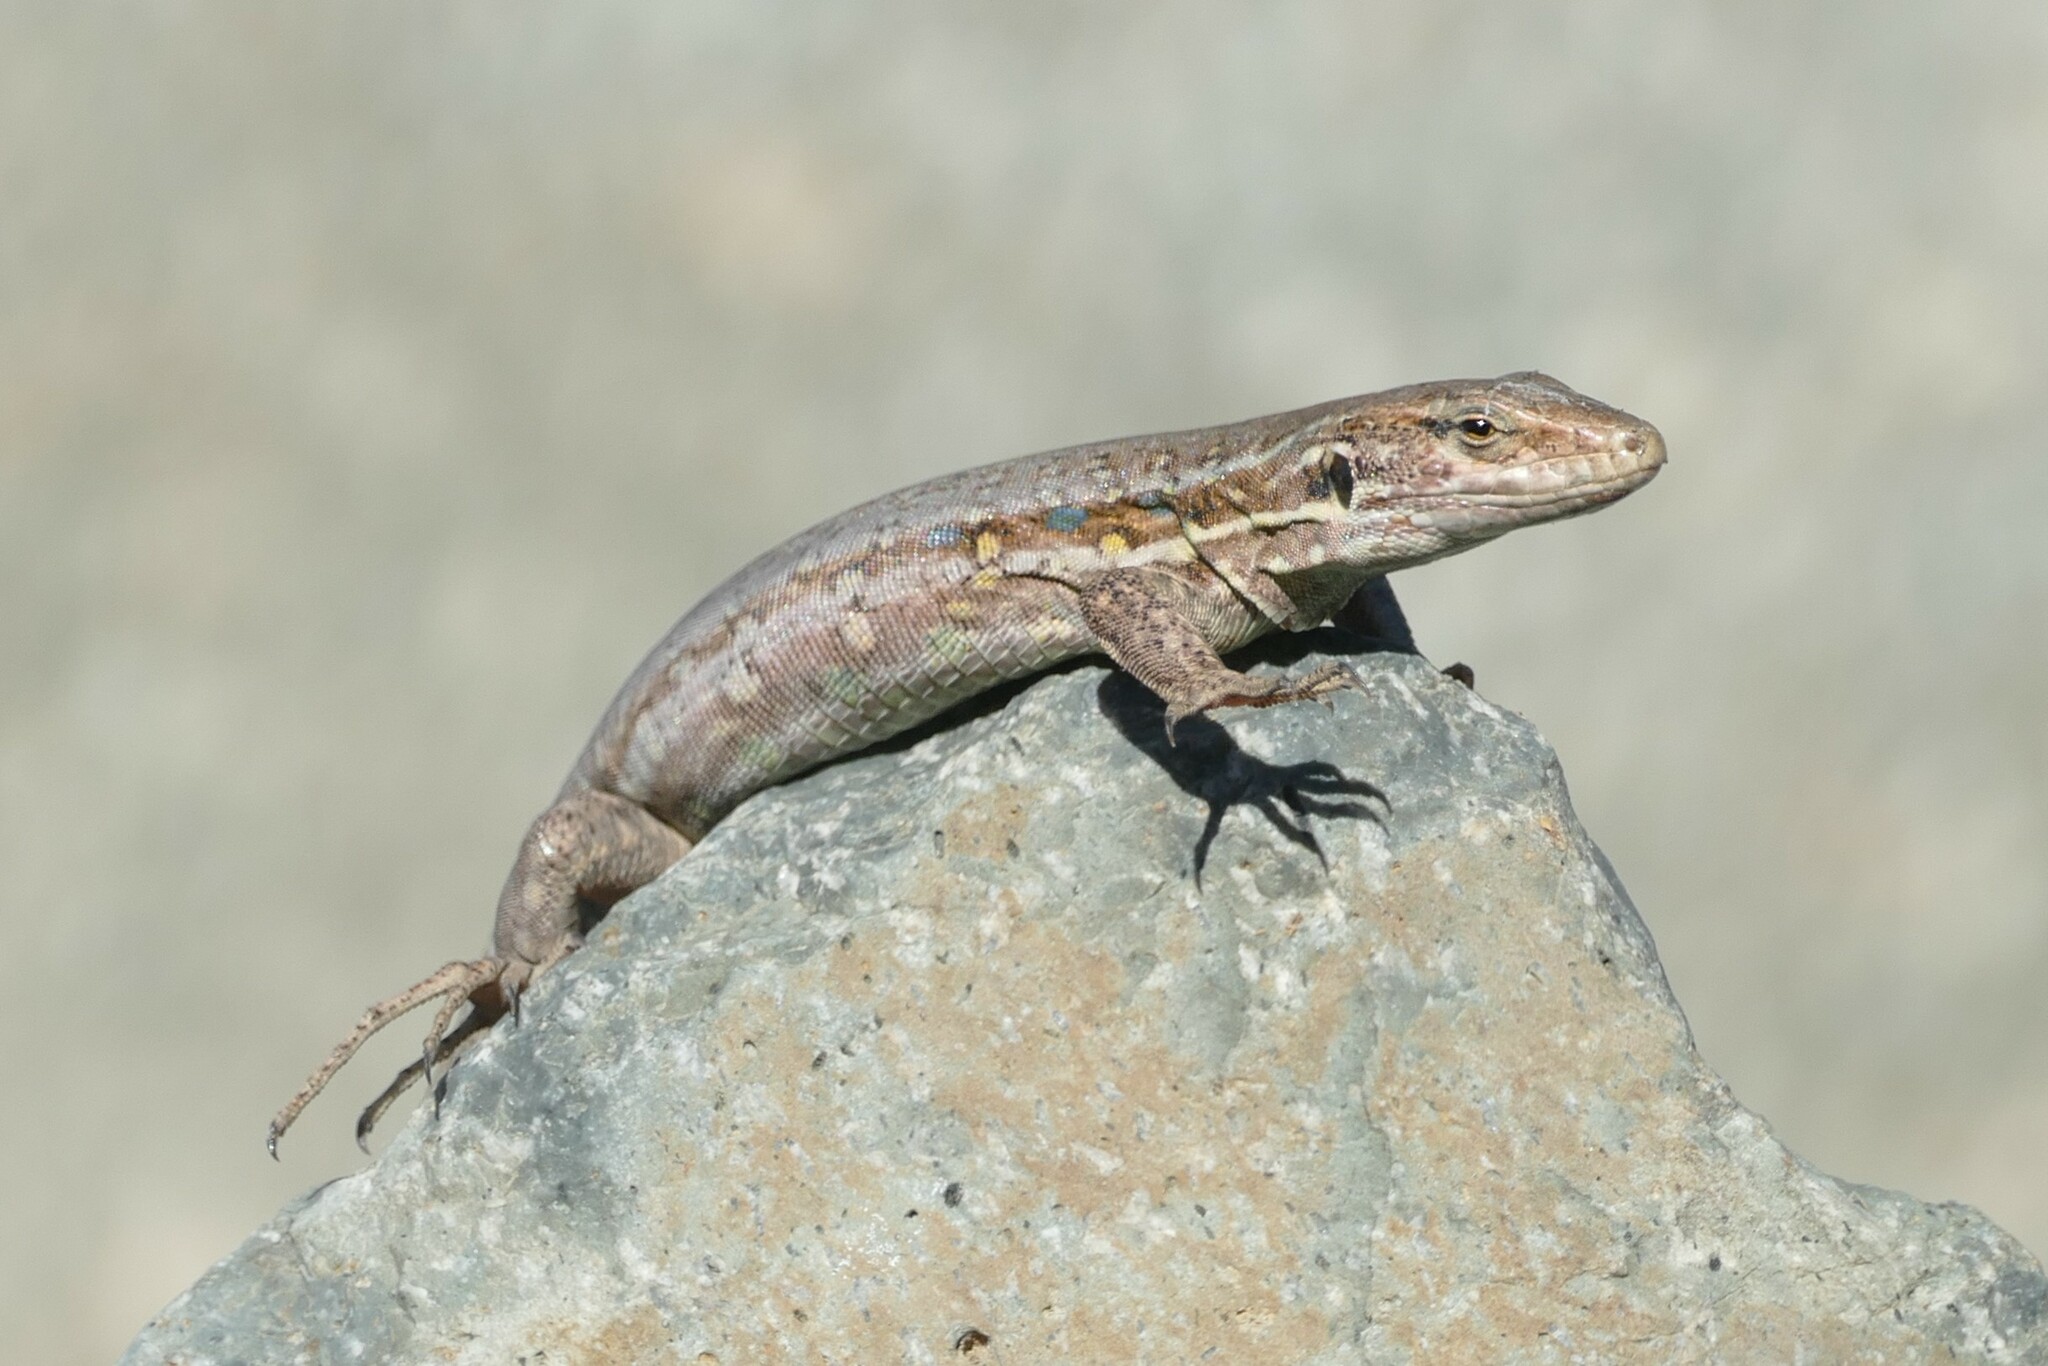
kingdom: Animalia
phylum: Chordata
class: Squamata
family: Lacertidae
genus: Gallotia
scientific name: Gallotia galloti
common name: Gallot's lizard
